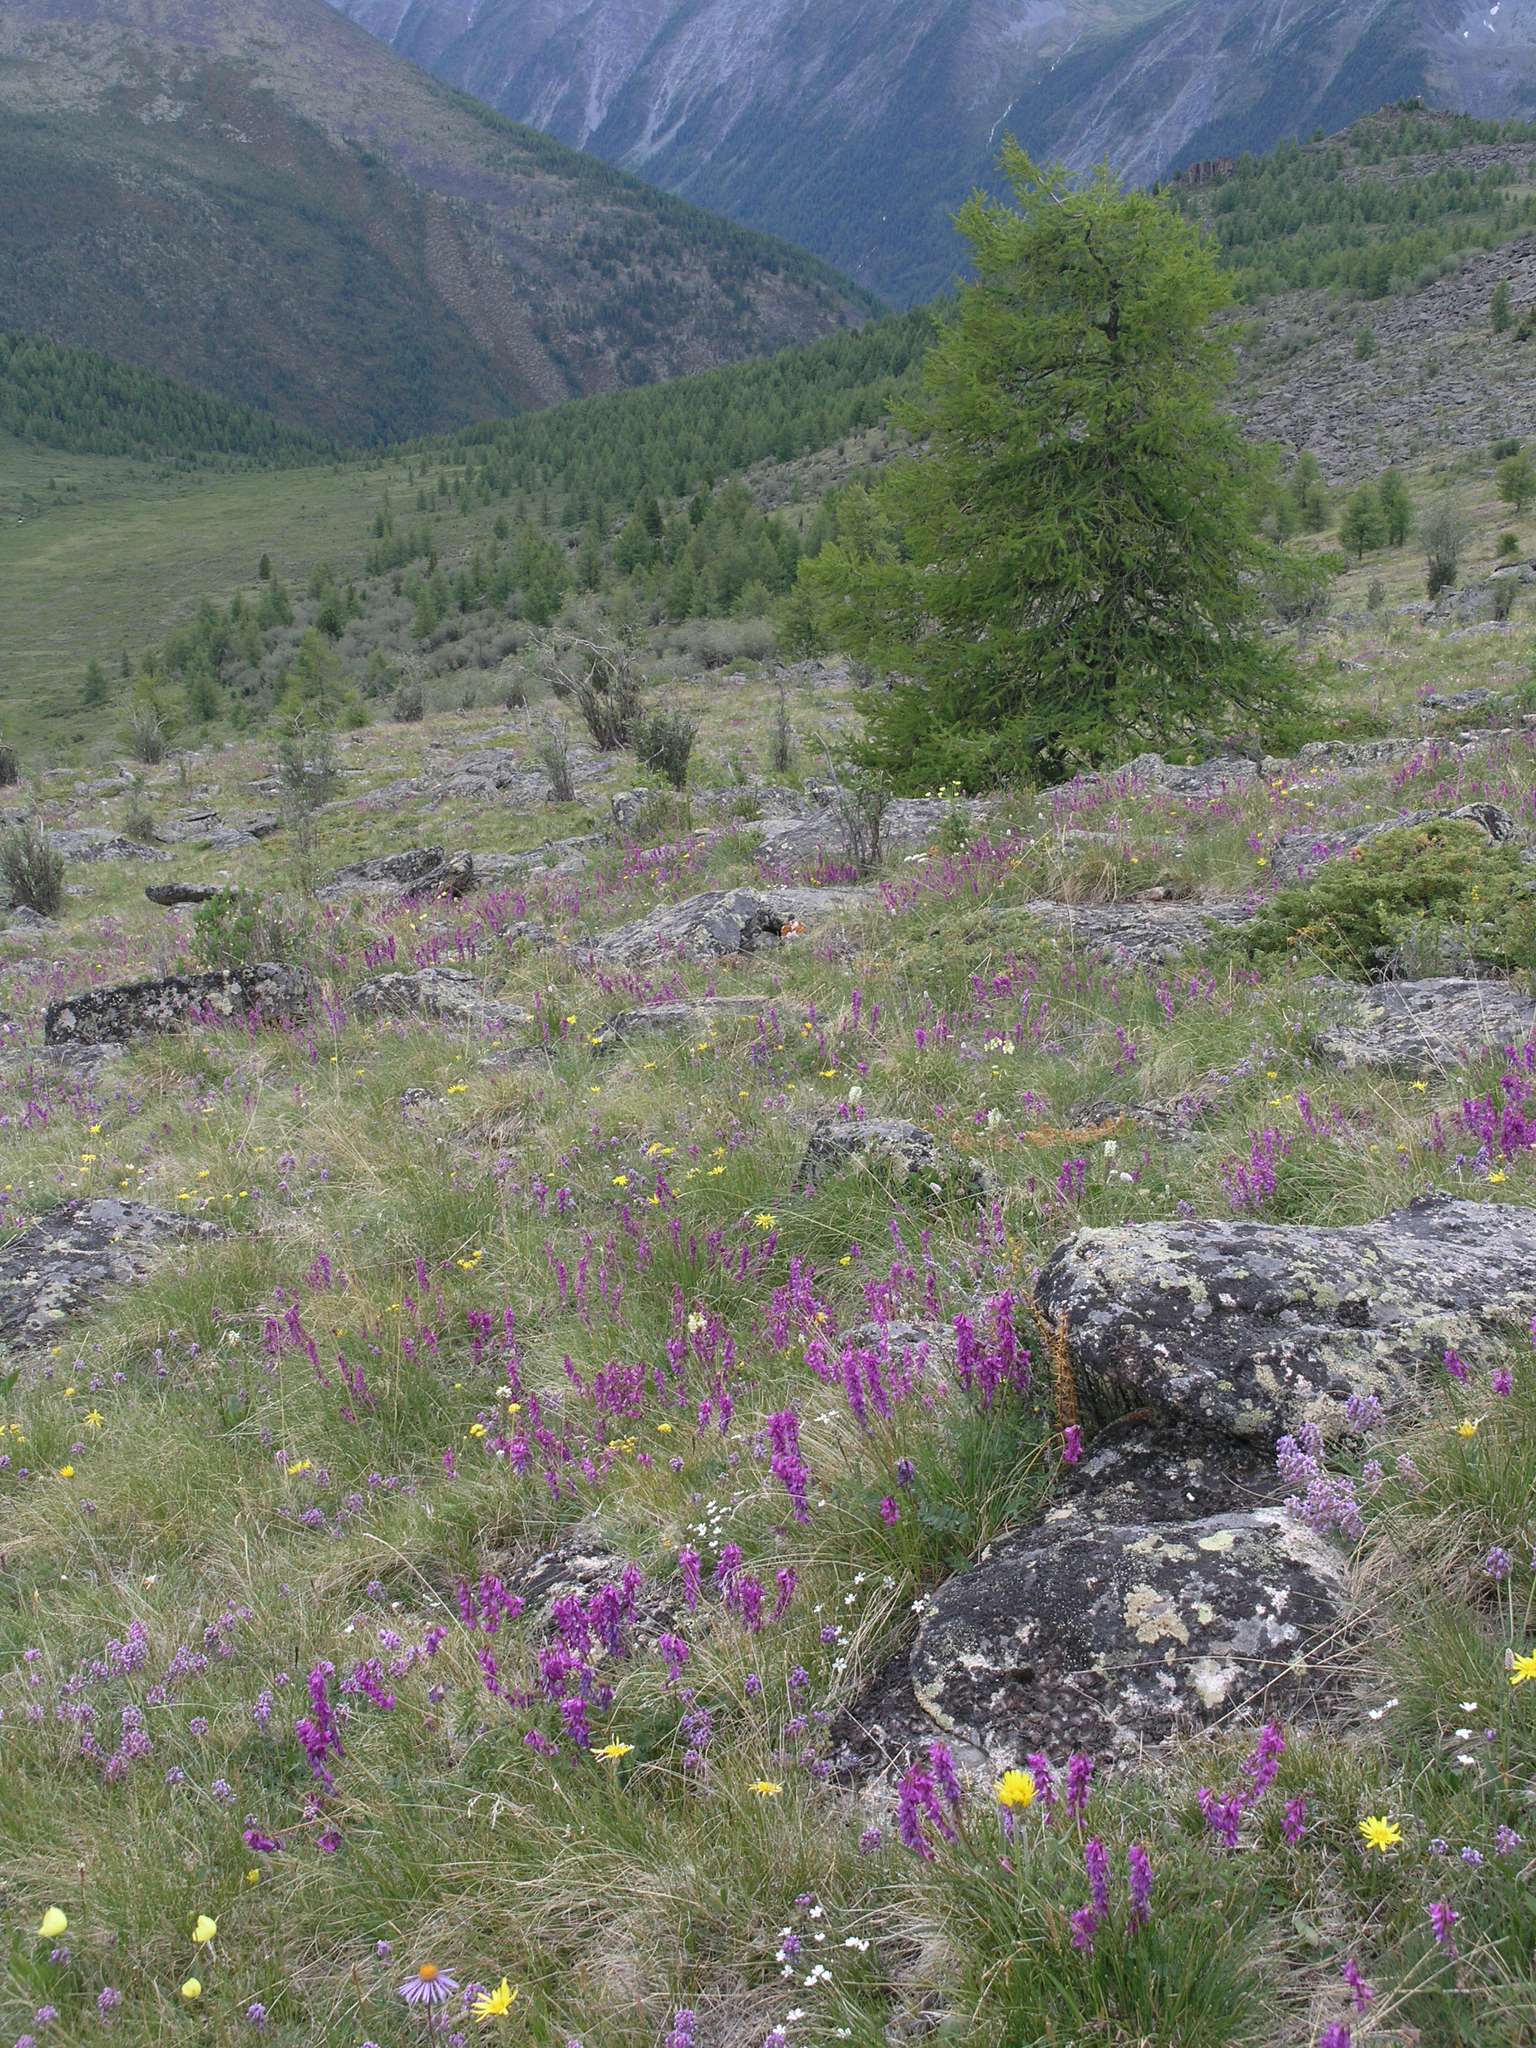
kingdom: Plantae
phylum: Tracheophyta
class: Pinopsida
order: Pinales
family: Pinaceae
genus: Larix
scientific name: Larix sibirica
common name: Siberian larch
